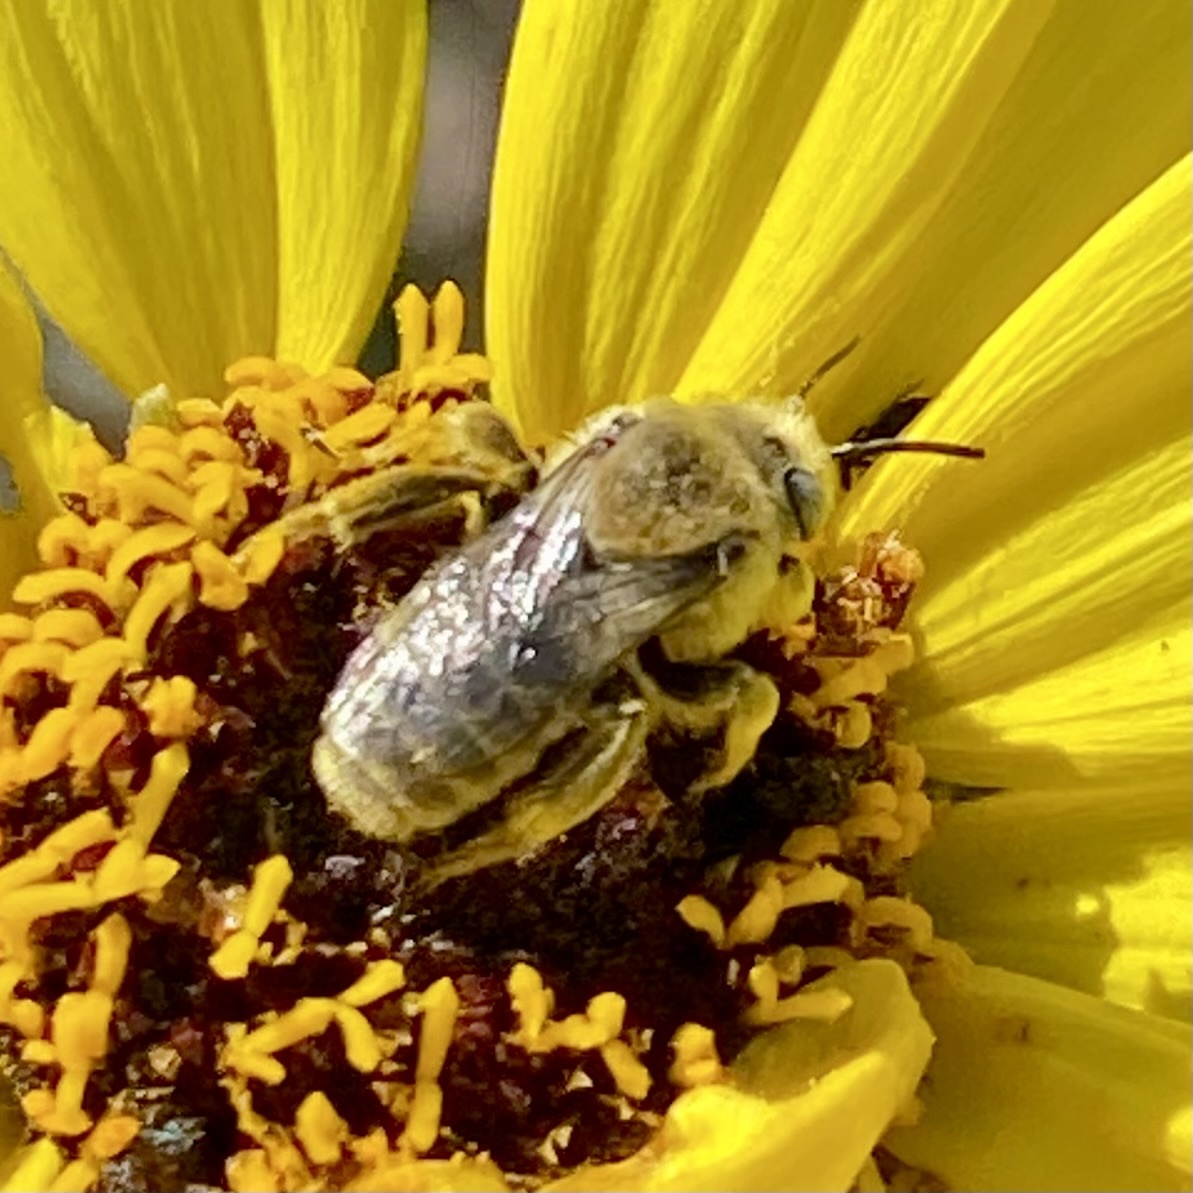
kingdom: Animalia
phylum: Arthropoda
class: Insecta
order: Hymenoptera
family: Apidae
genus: Diadasia
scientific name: Diadasia enavata
